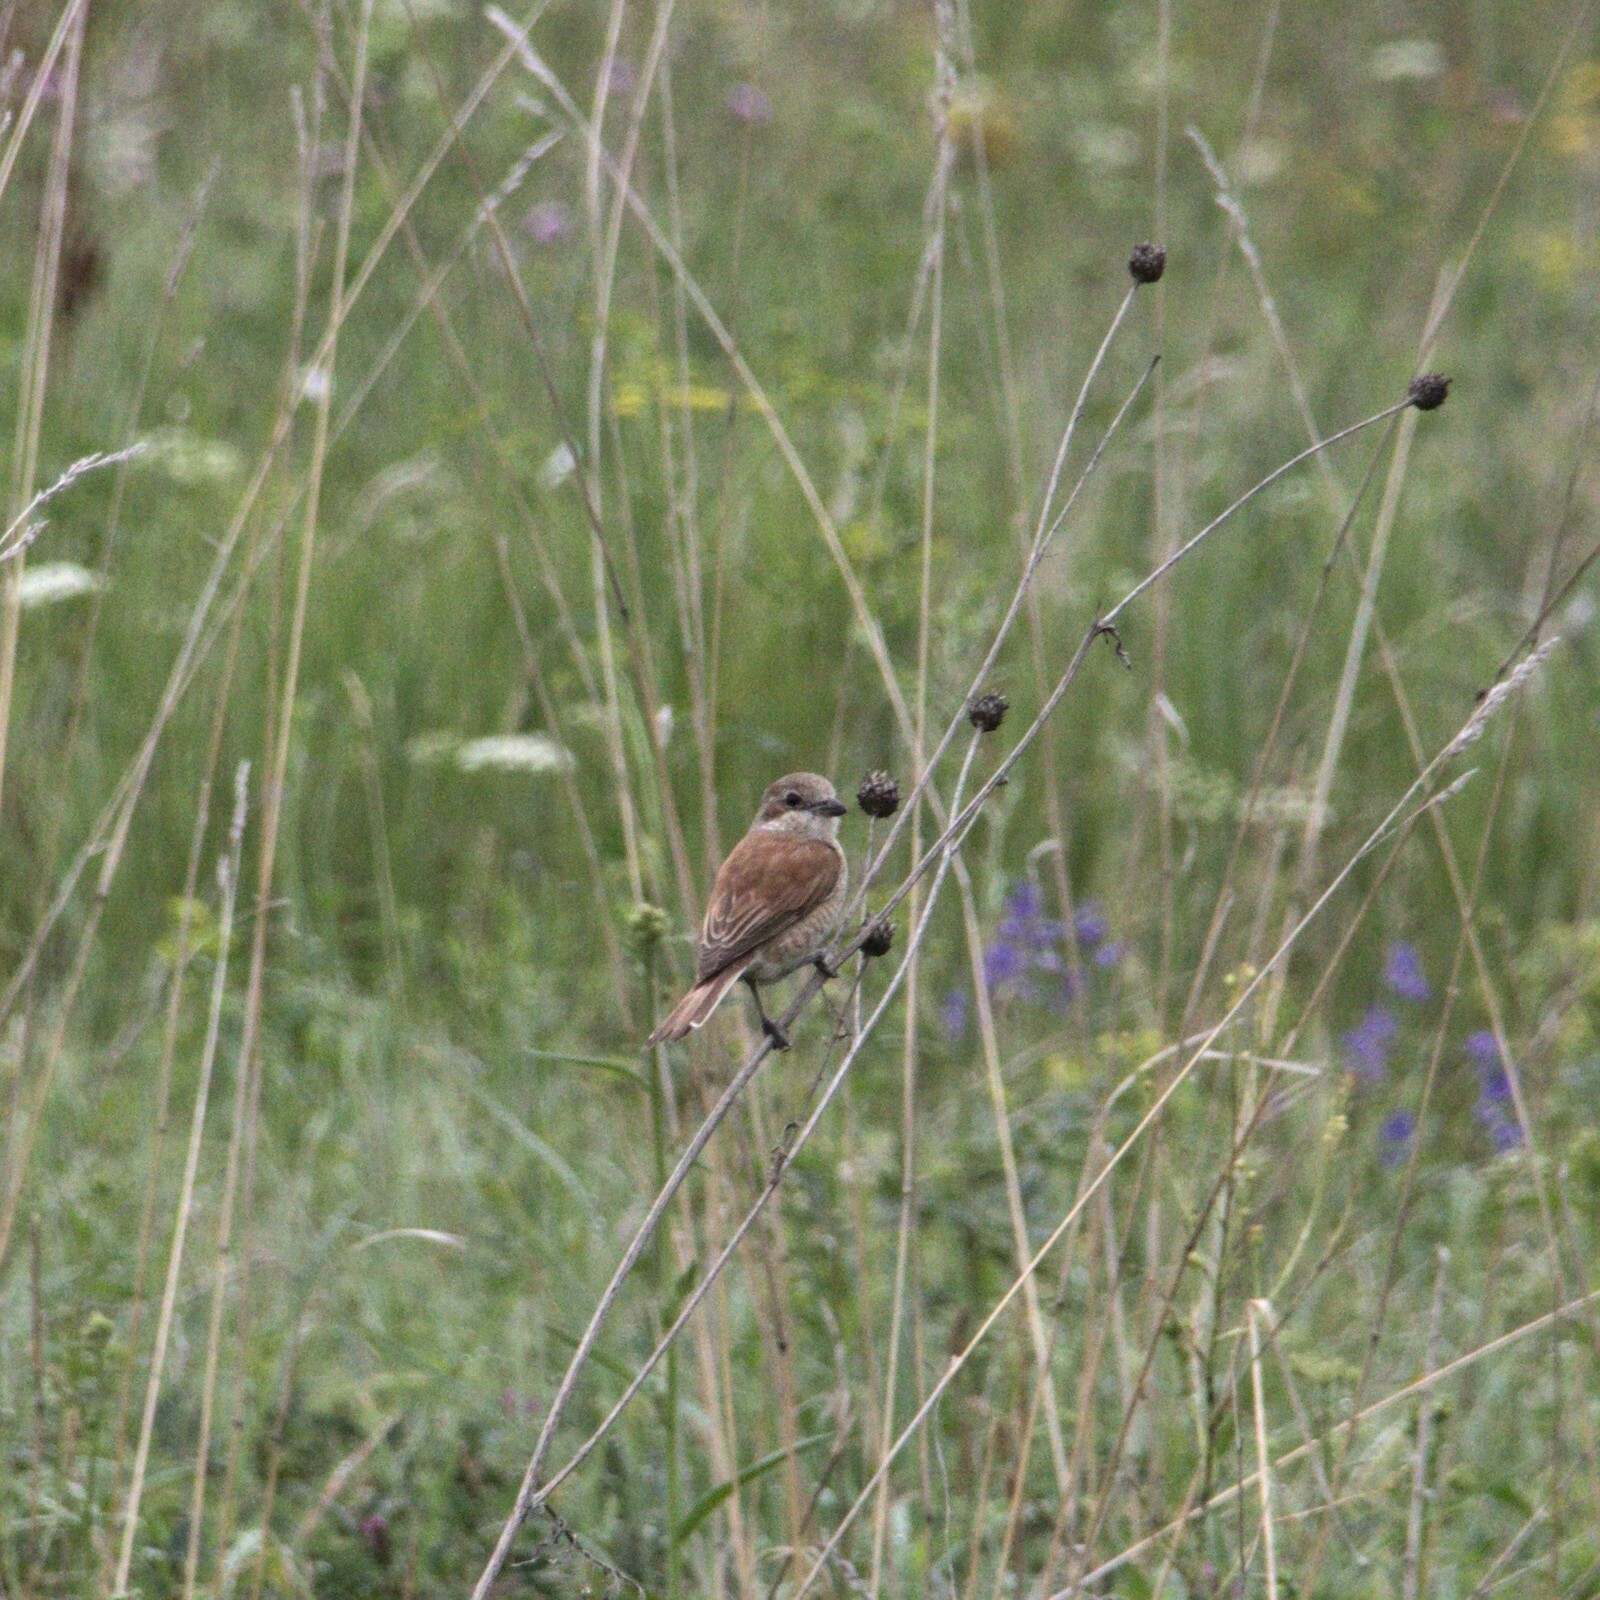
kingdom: Animalia
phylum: Chordata
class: Aves
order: Passeriformes
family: Laniidae
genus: Lanius
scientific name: Lanius collurio
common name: Red-backed shrike
